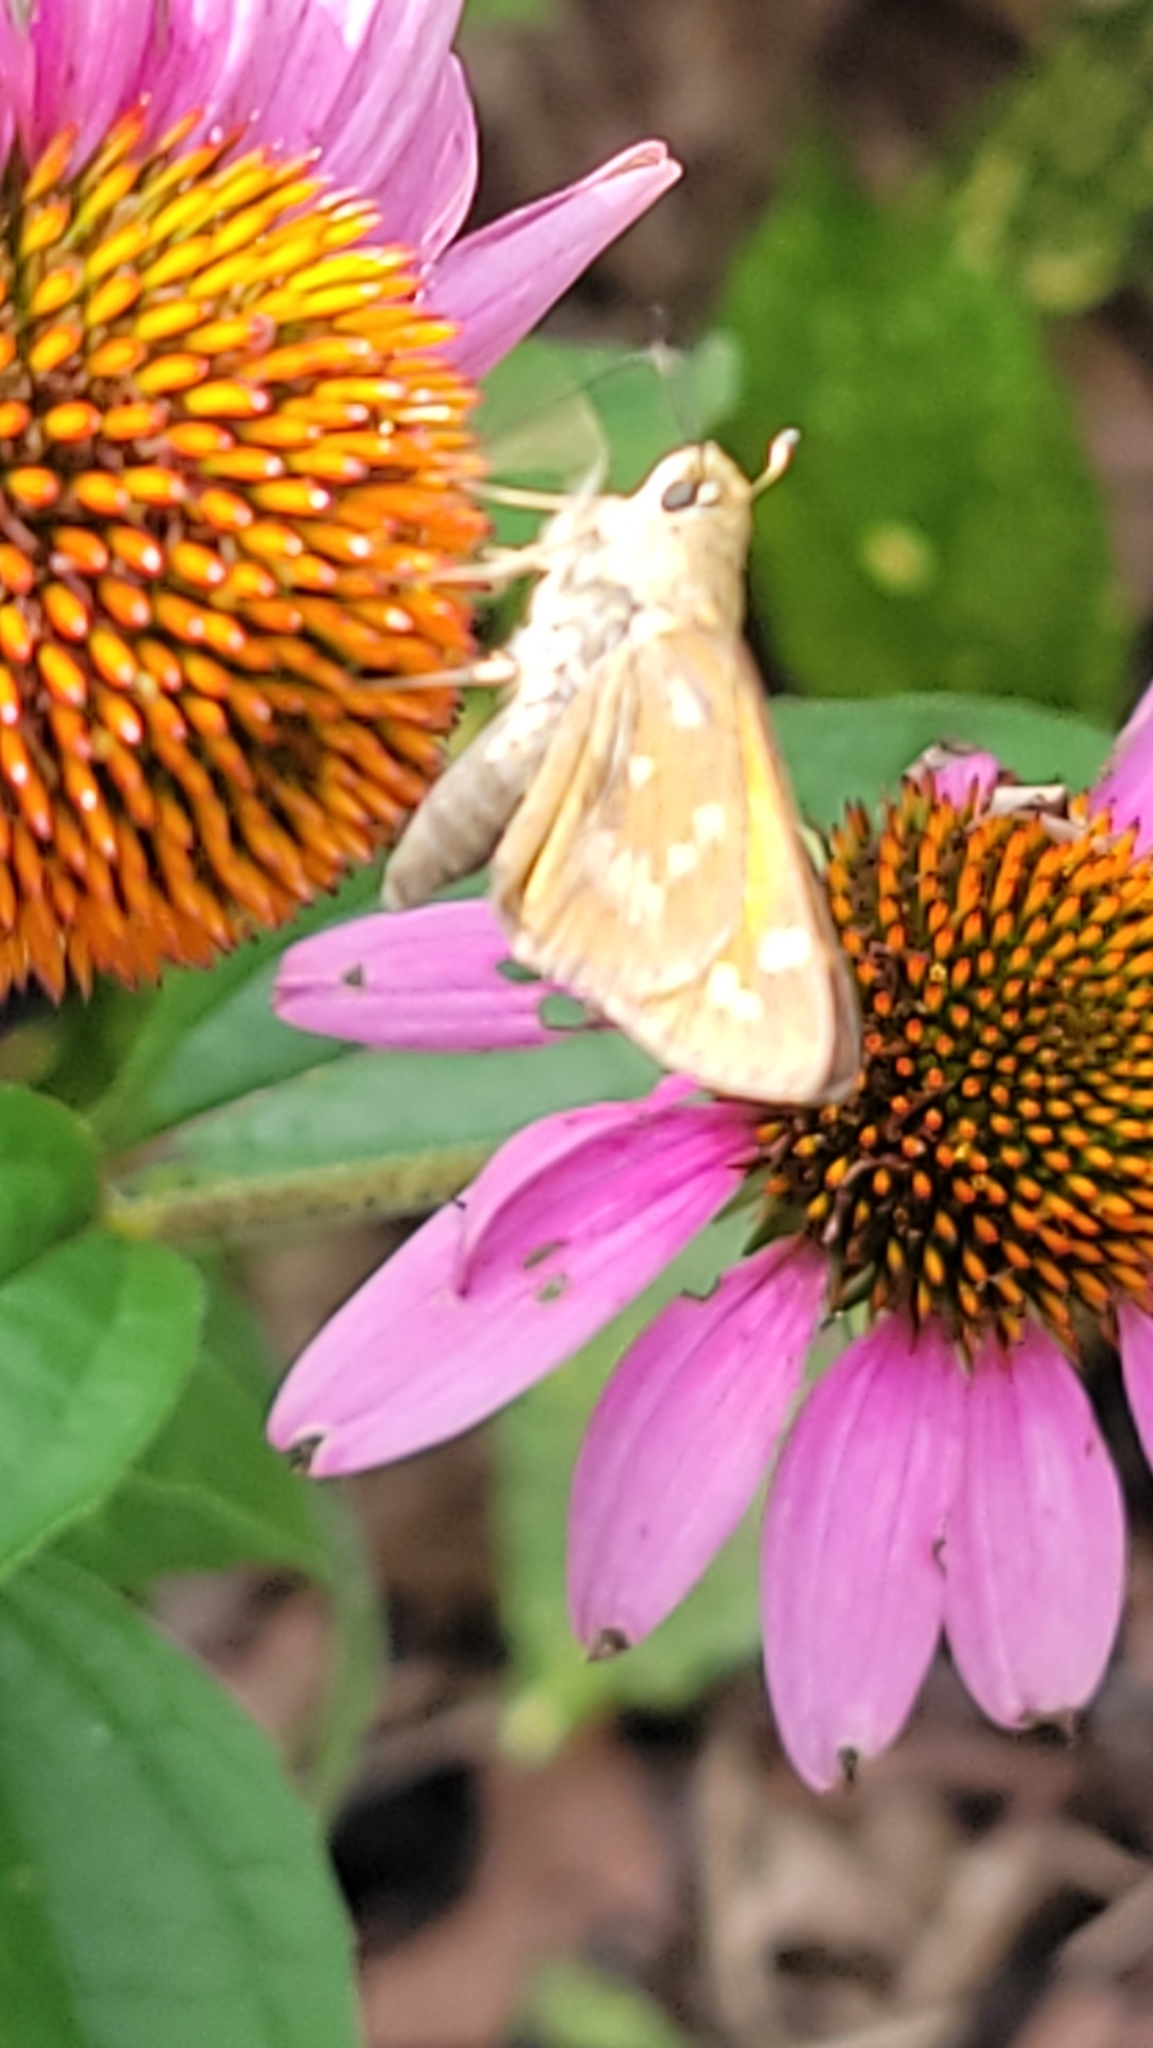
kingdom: Animalia
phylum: Arthropoda
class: Insecta
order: Lepidoptera
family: Hesperiidae
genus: Atalopedes
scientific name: Atalopedes
